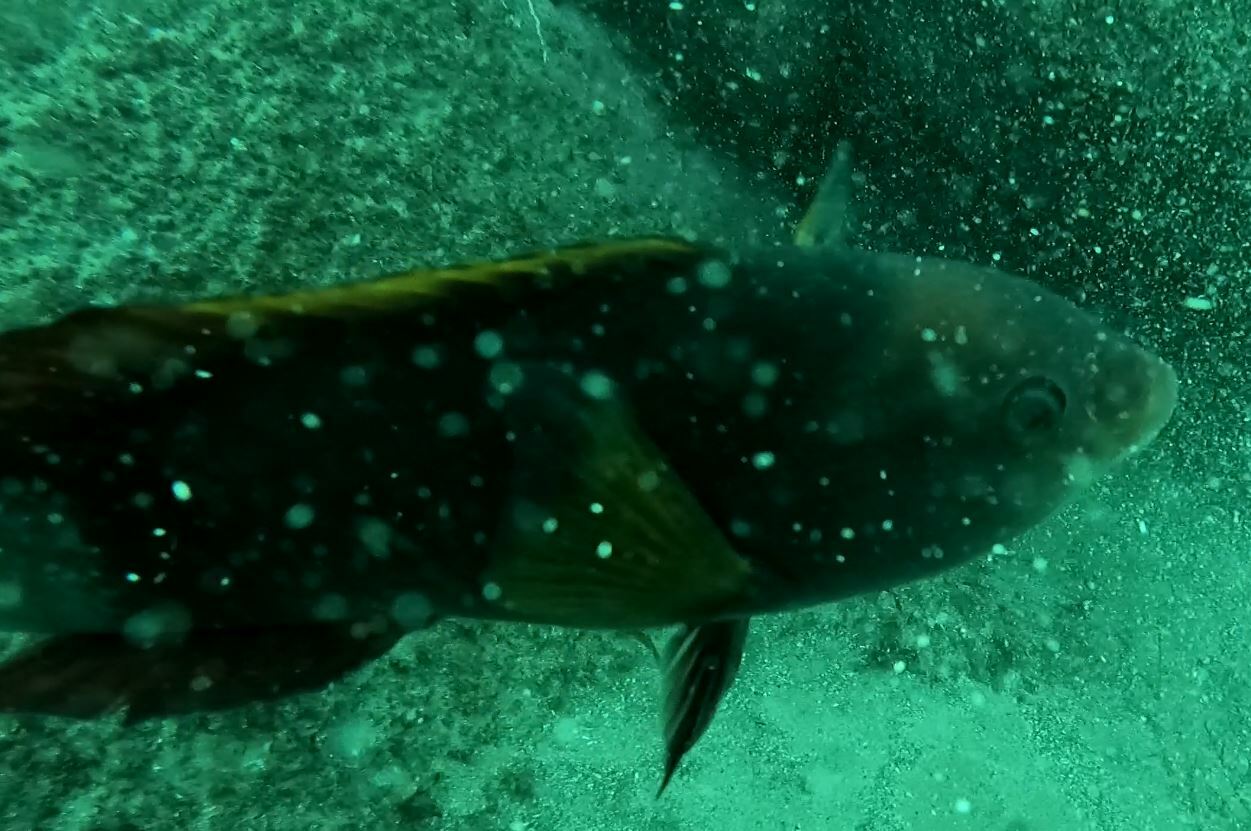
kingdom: Animalia
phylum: Chordata
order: Perciformes
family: Labridae
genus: Notolabrus
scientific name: Notolabrus gymnogenis
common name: Crimson banded wrasse
